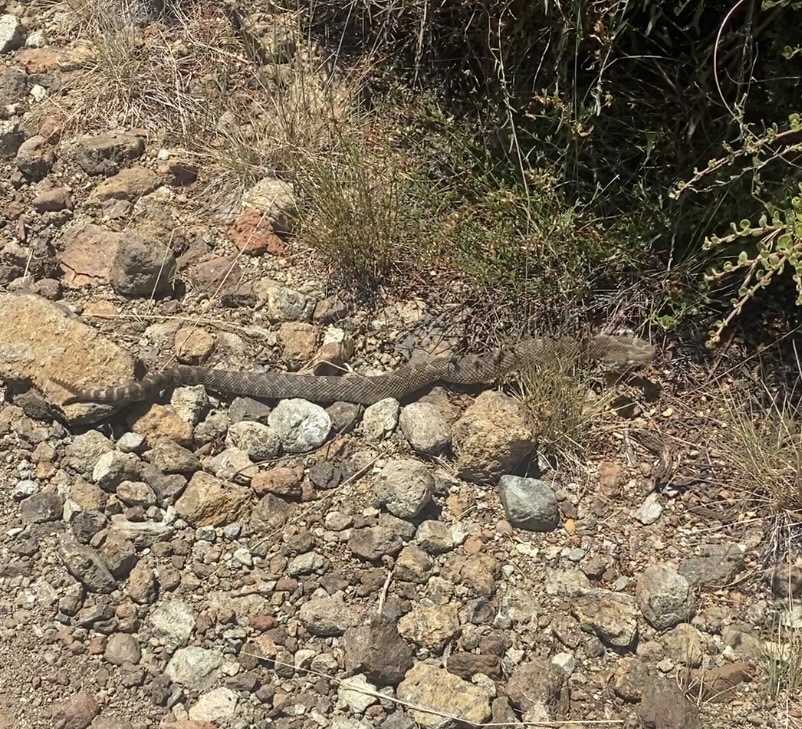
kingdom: Animalia
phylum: Chordata
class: Squamata
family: Viperidae
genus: Crotalus
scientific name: Crotalus oreganus
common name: Abyssus
